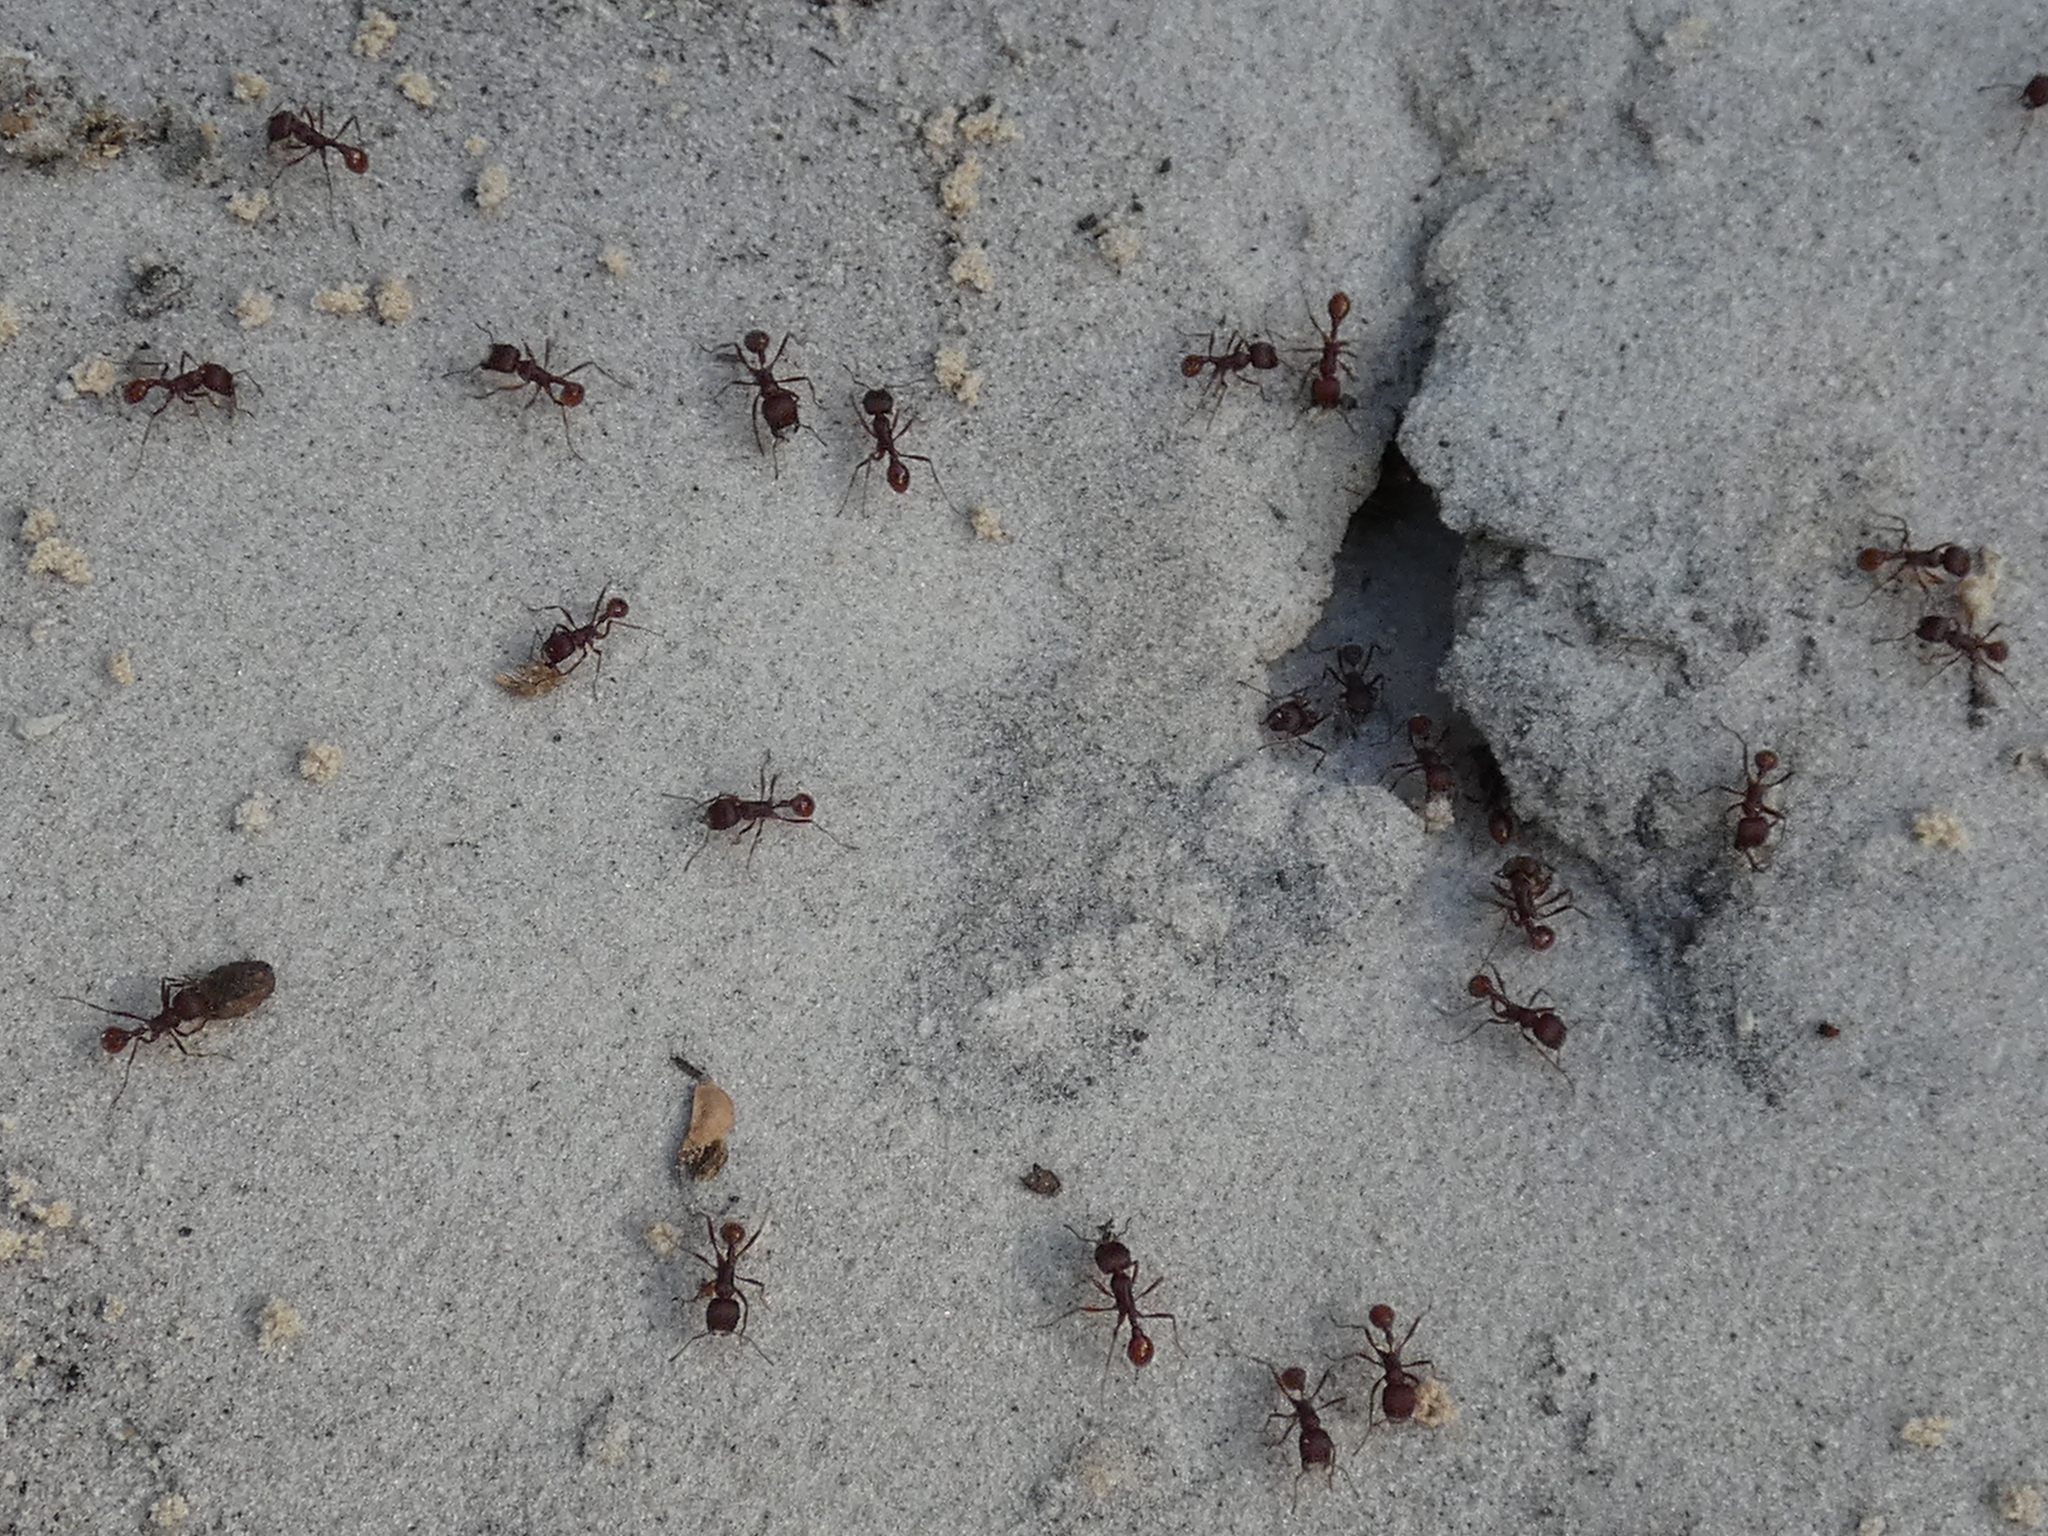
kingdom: Animalia
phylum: Arthropoda
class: Insecta
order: Hymenoptera
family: Formicidae
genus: Pogonomyrmex
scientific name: Pogonomyrmex badius
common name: Florida harvester ant
